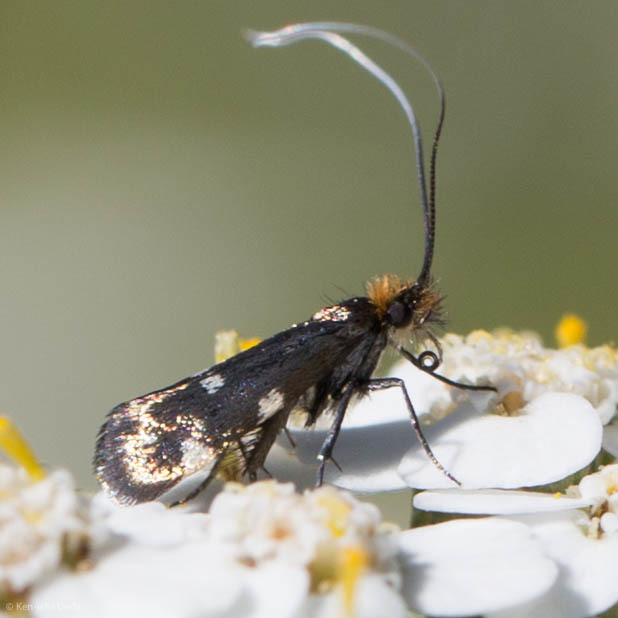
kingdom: Animalia
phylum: Arthropoda
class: Insecta
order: Lepidoptera
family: Adelidae
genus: Adela
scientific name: Adela flammeusella
